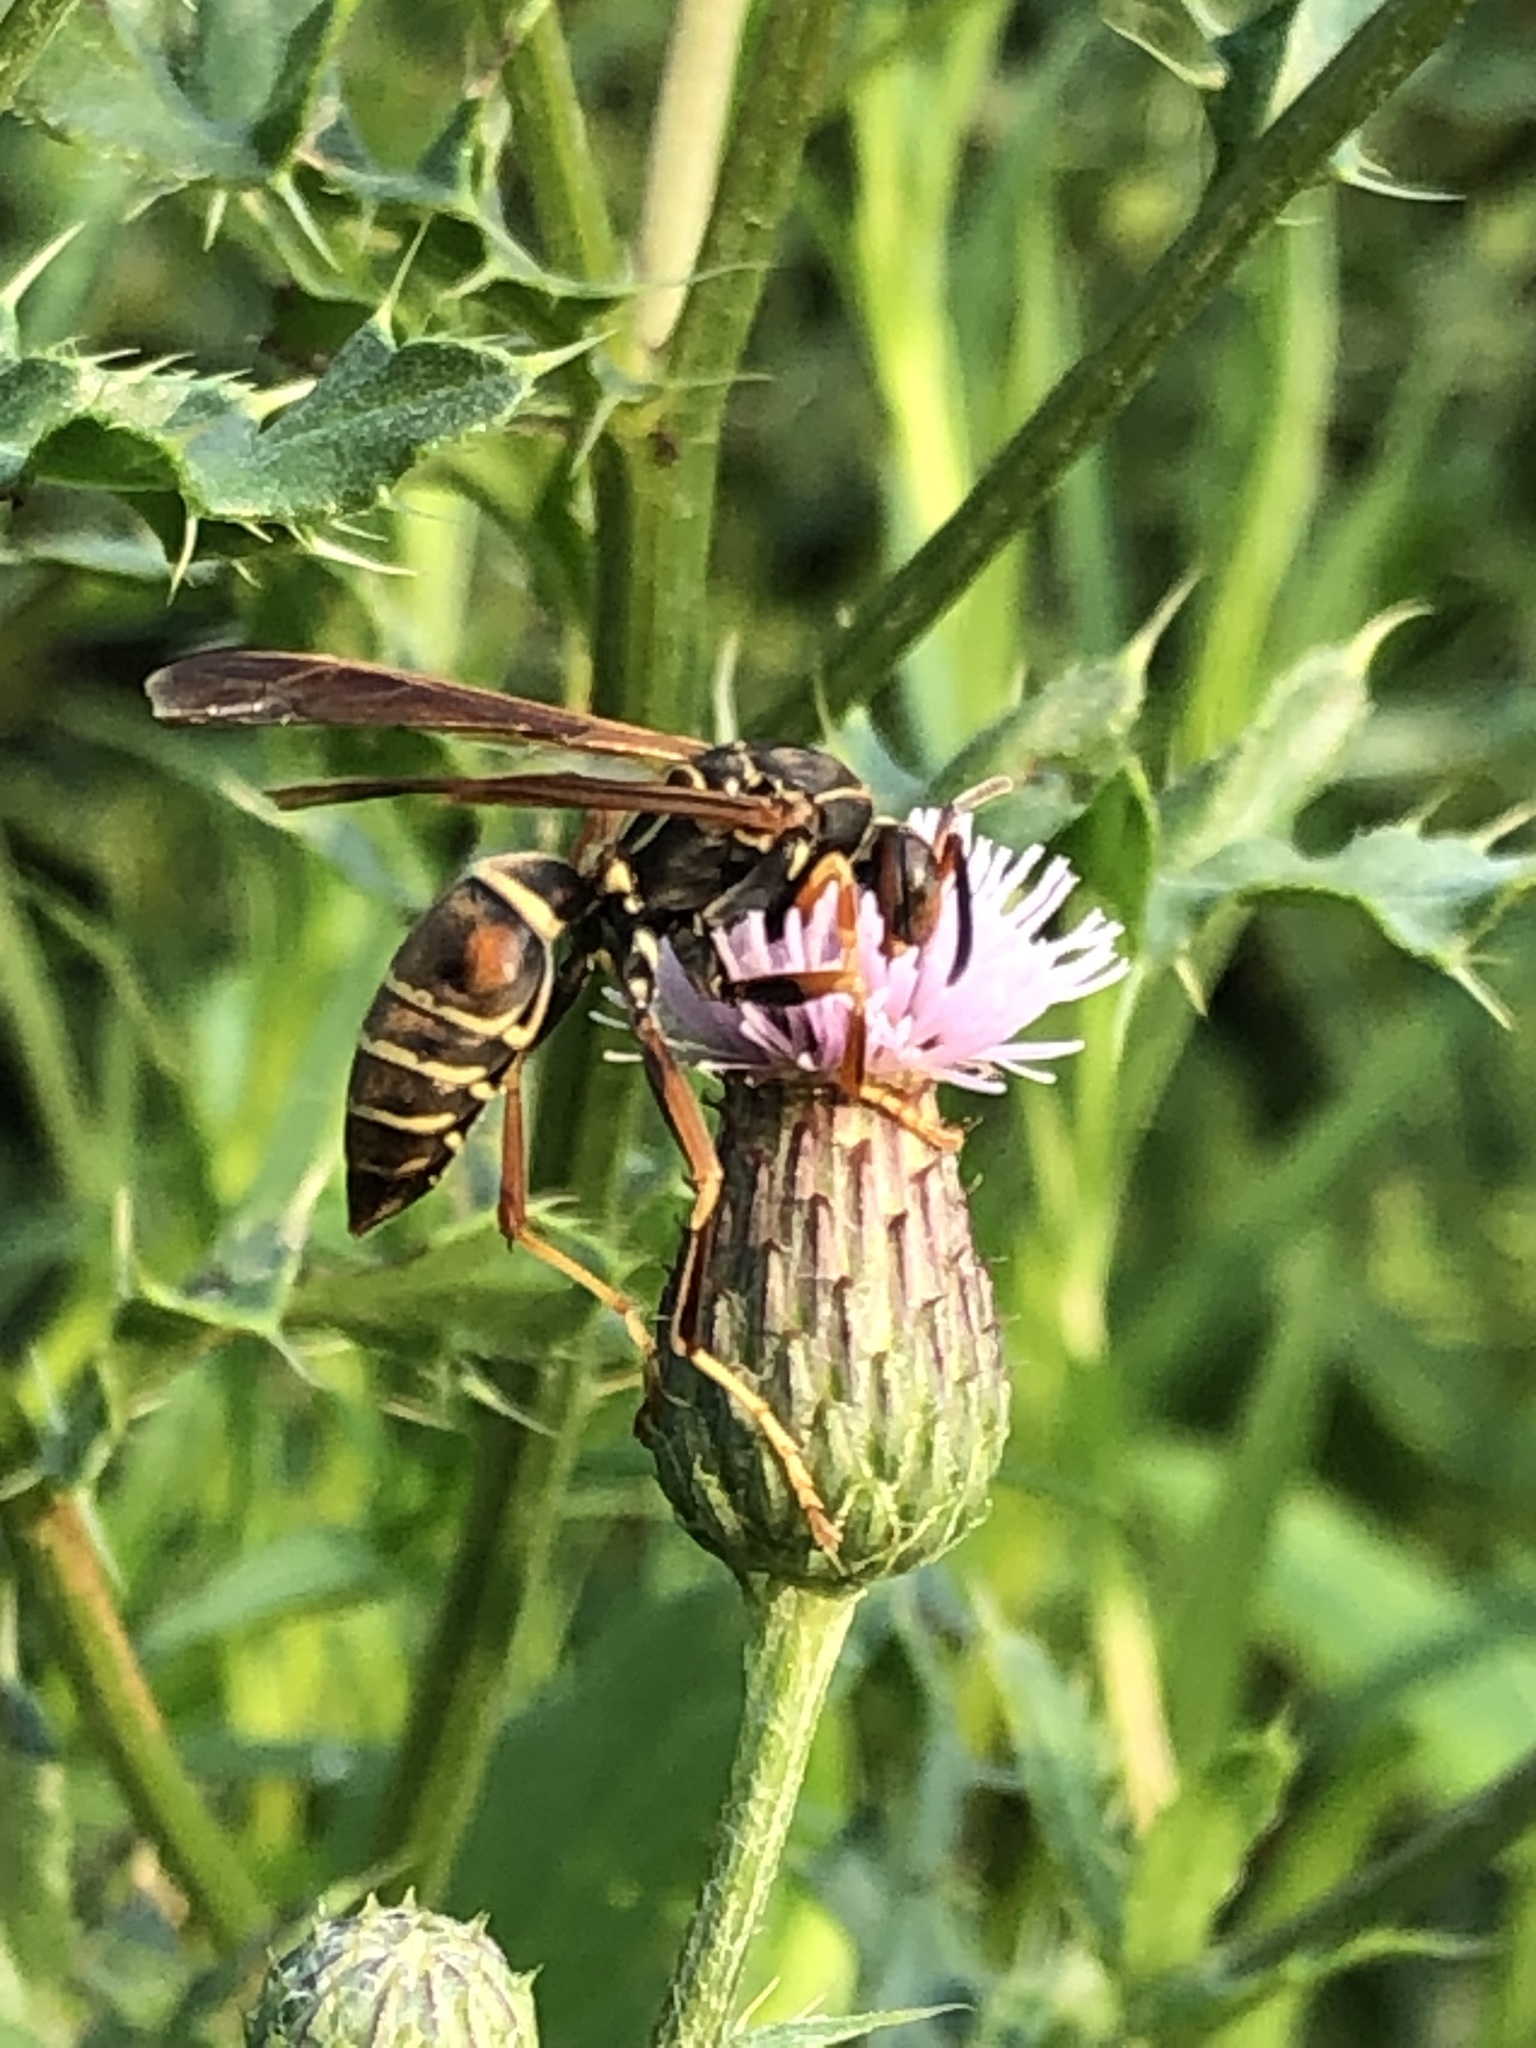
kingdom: Animalia
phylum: Arthropoda
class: Insecta
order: Hymenoptera
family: Eumenidae
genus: Polistes
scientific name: Polistes fuscatus
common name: Dark paper wasp
